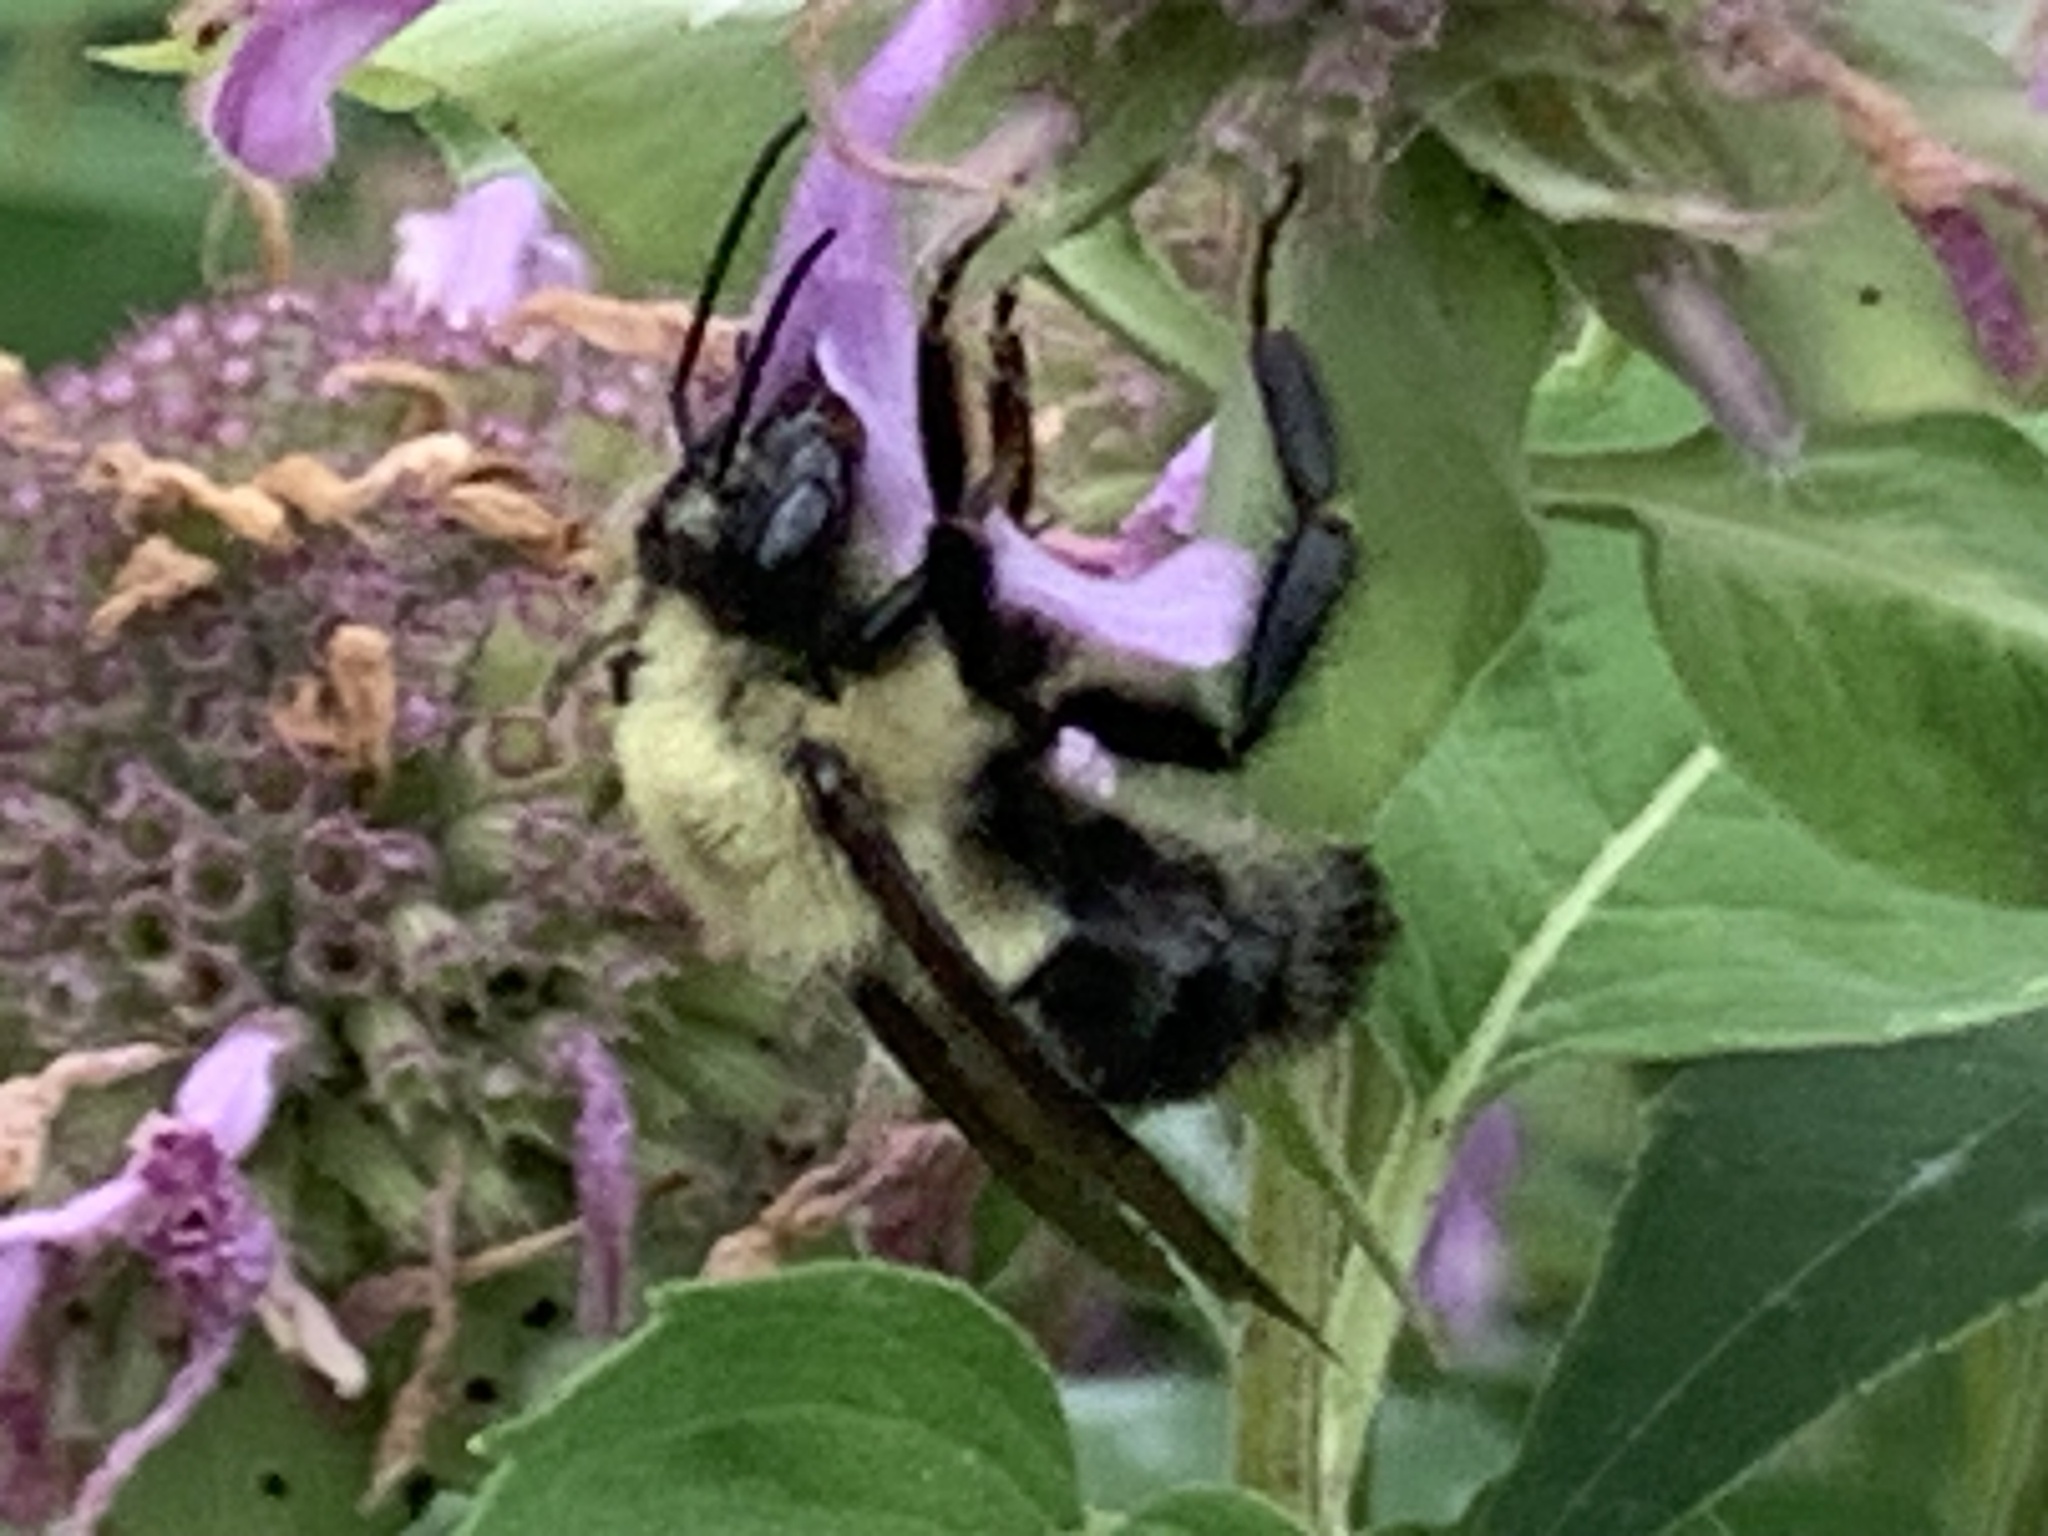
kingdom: Animalia
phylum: Arthropoda
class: Insecta
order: Hymenoptera
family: Apidae
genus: Bombus
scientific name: Bombus bimaculatus
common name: Two-spotted bumble bee
